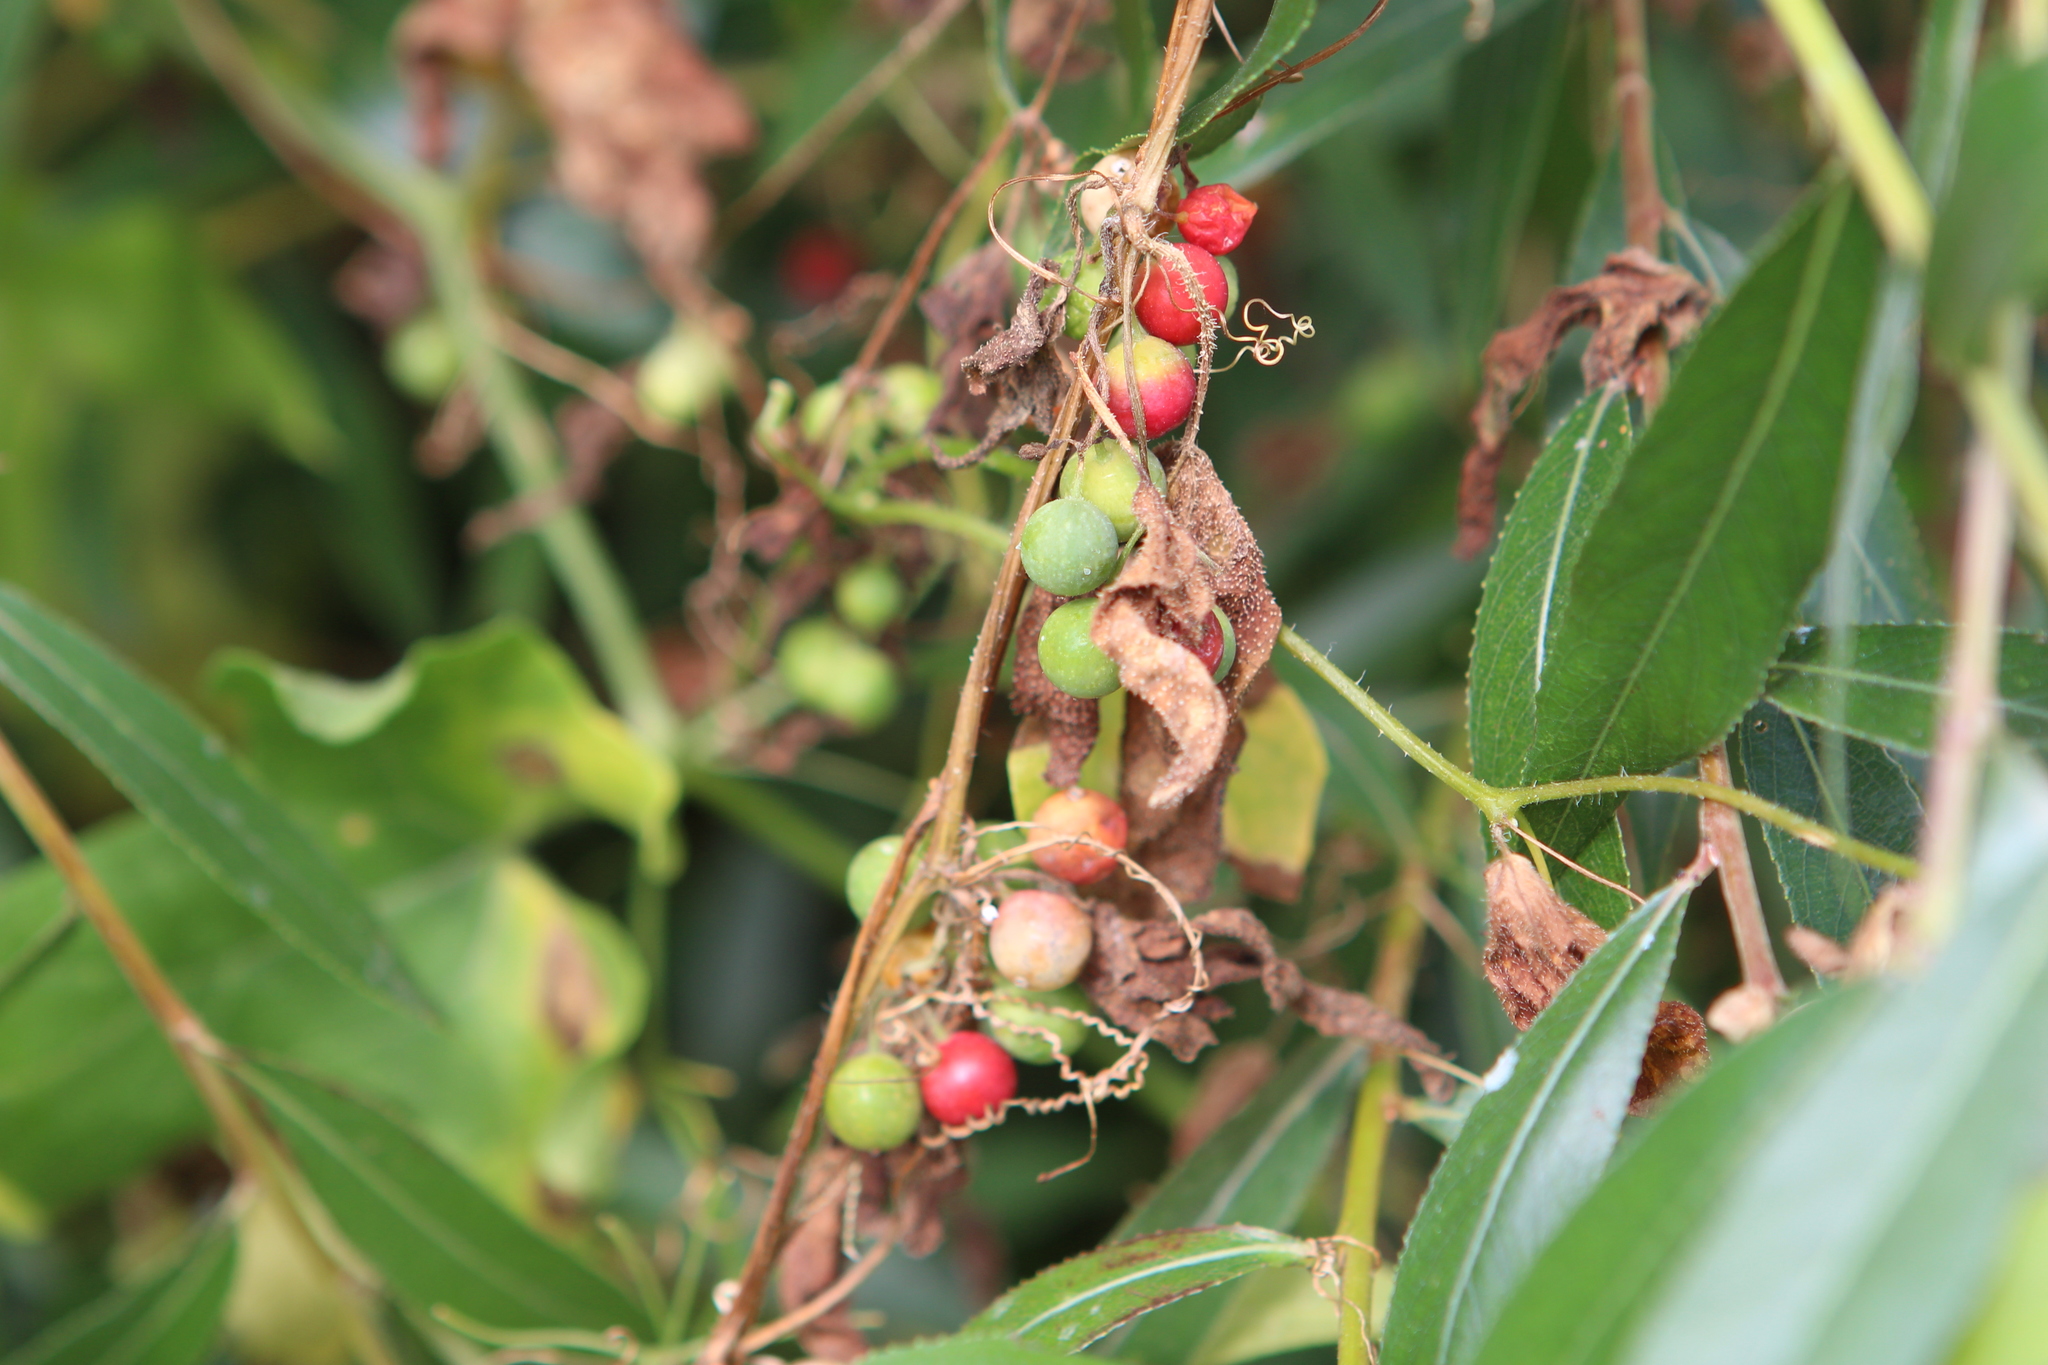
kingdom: Plantae
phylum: Tracheophyta
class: Magnoliopsida
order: Cucurbitales
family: Cucurbitaceae
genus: Bryonia
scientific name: Bryonia dioica
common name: White bryony
